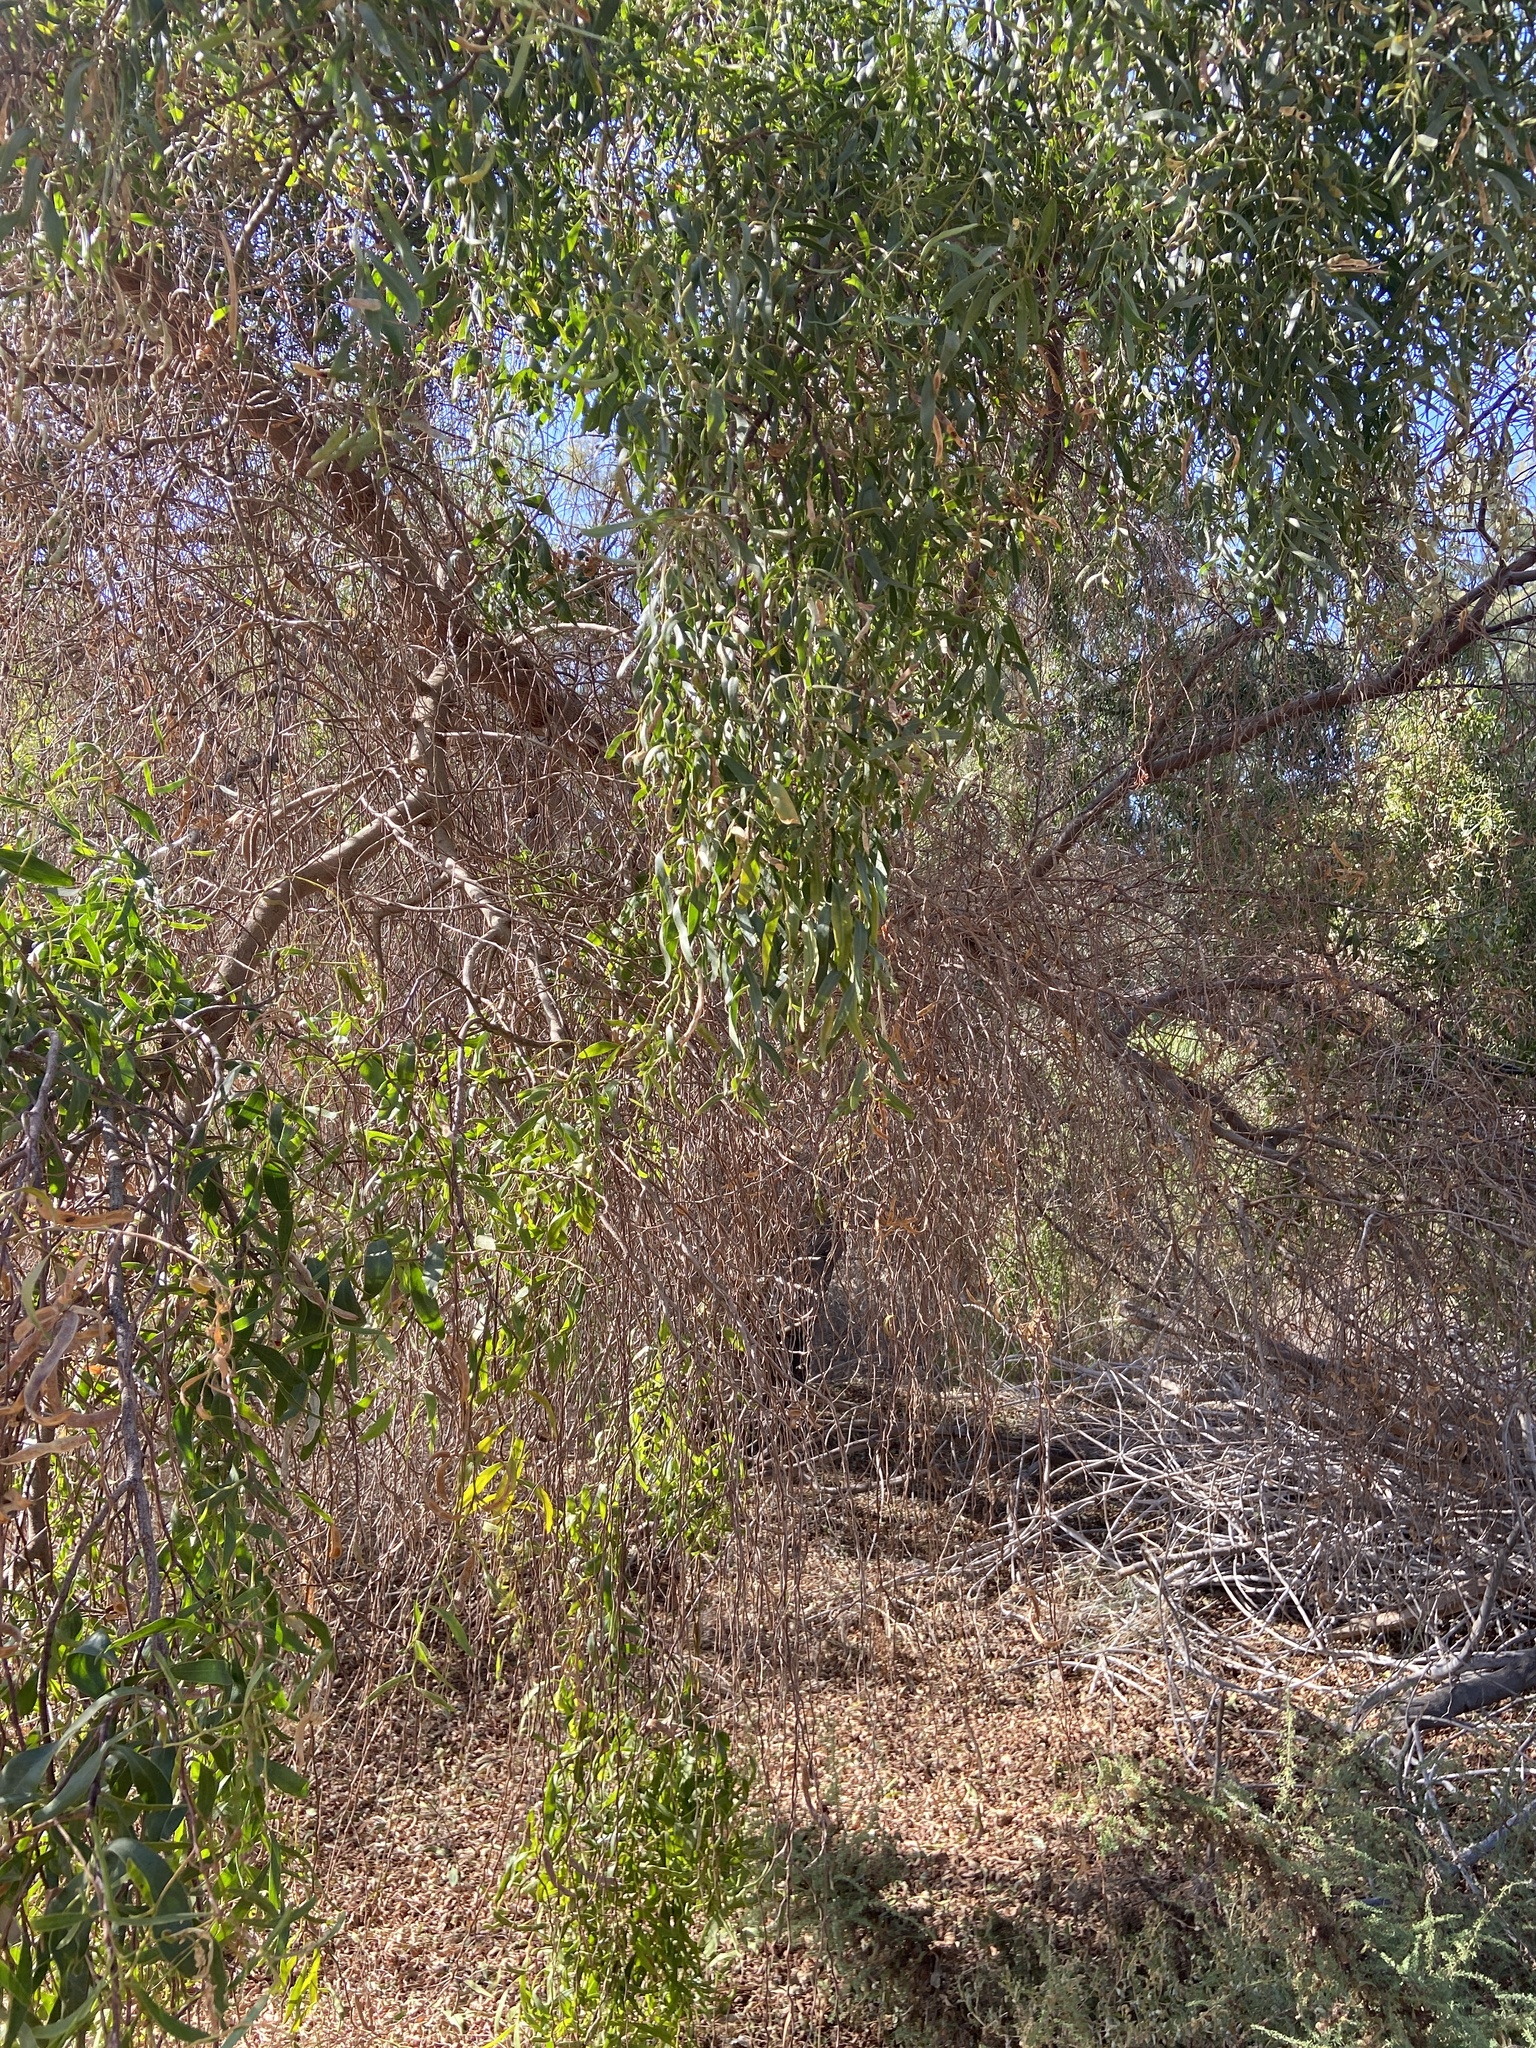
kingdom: Plantae
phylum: Tracheophyta
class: Magnoliopsida
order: Fabales
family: Fabaceae
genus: Acacia
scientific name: Acacia cyclops
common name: Coastal wattle
